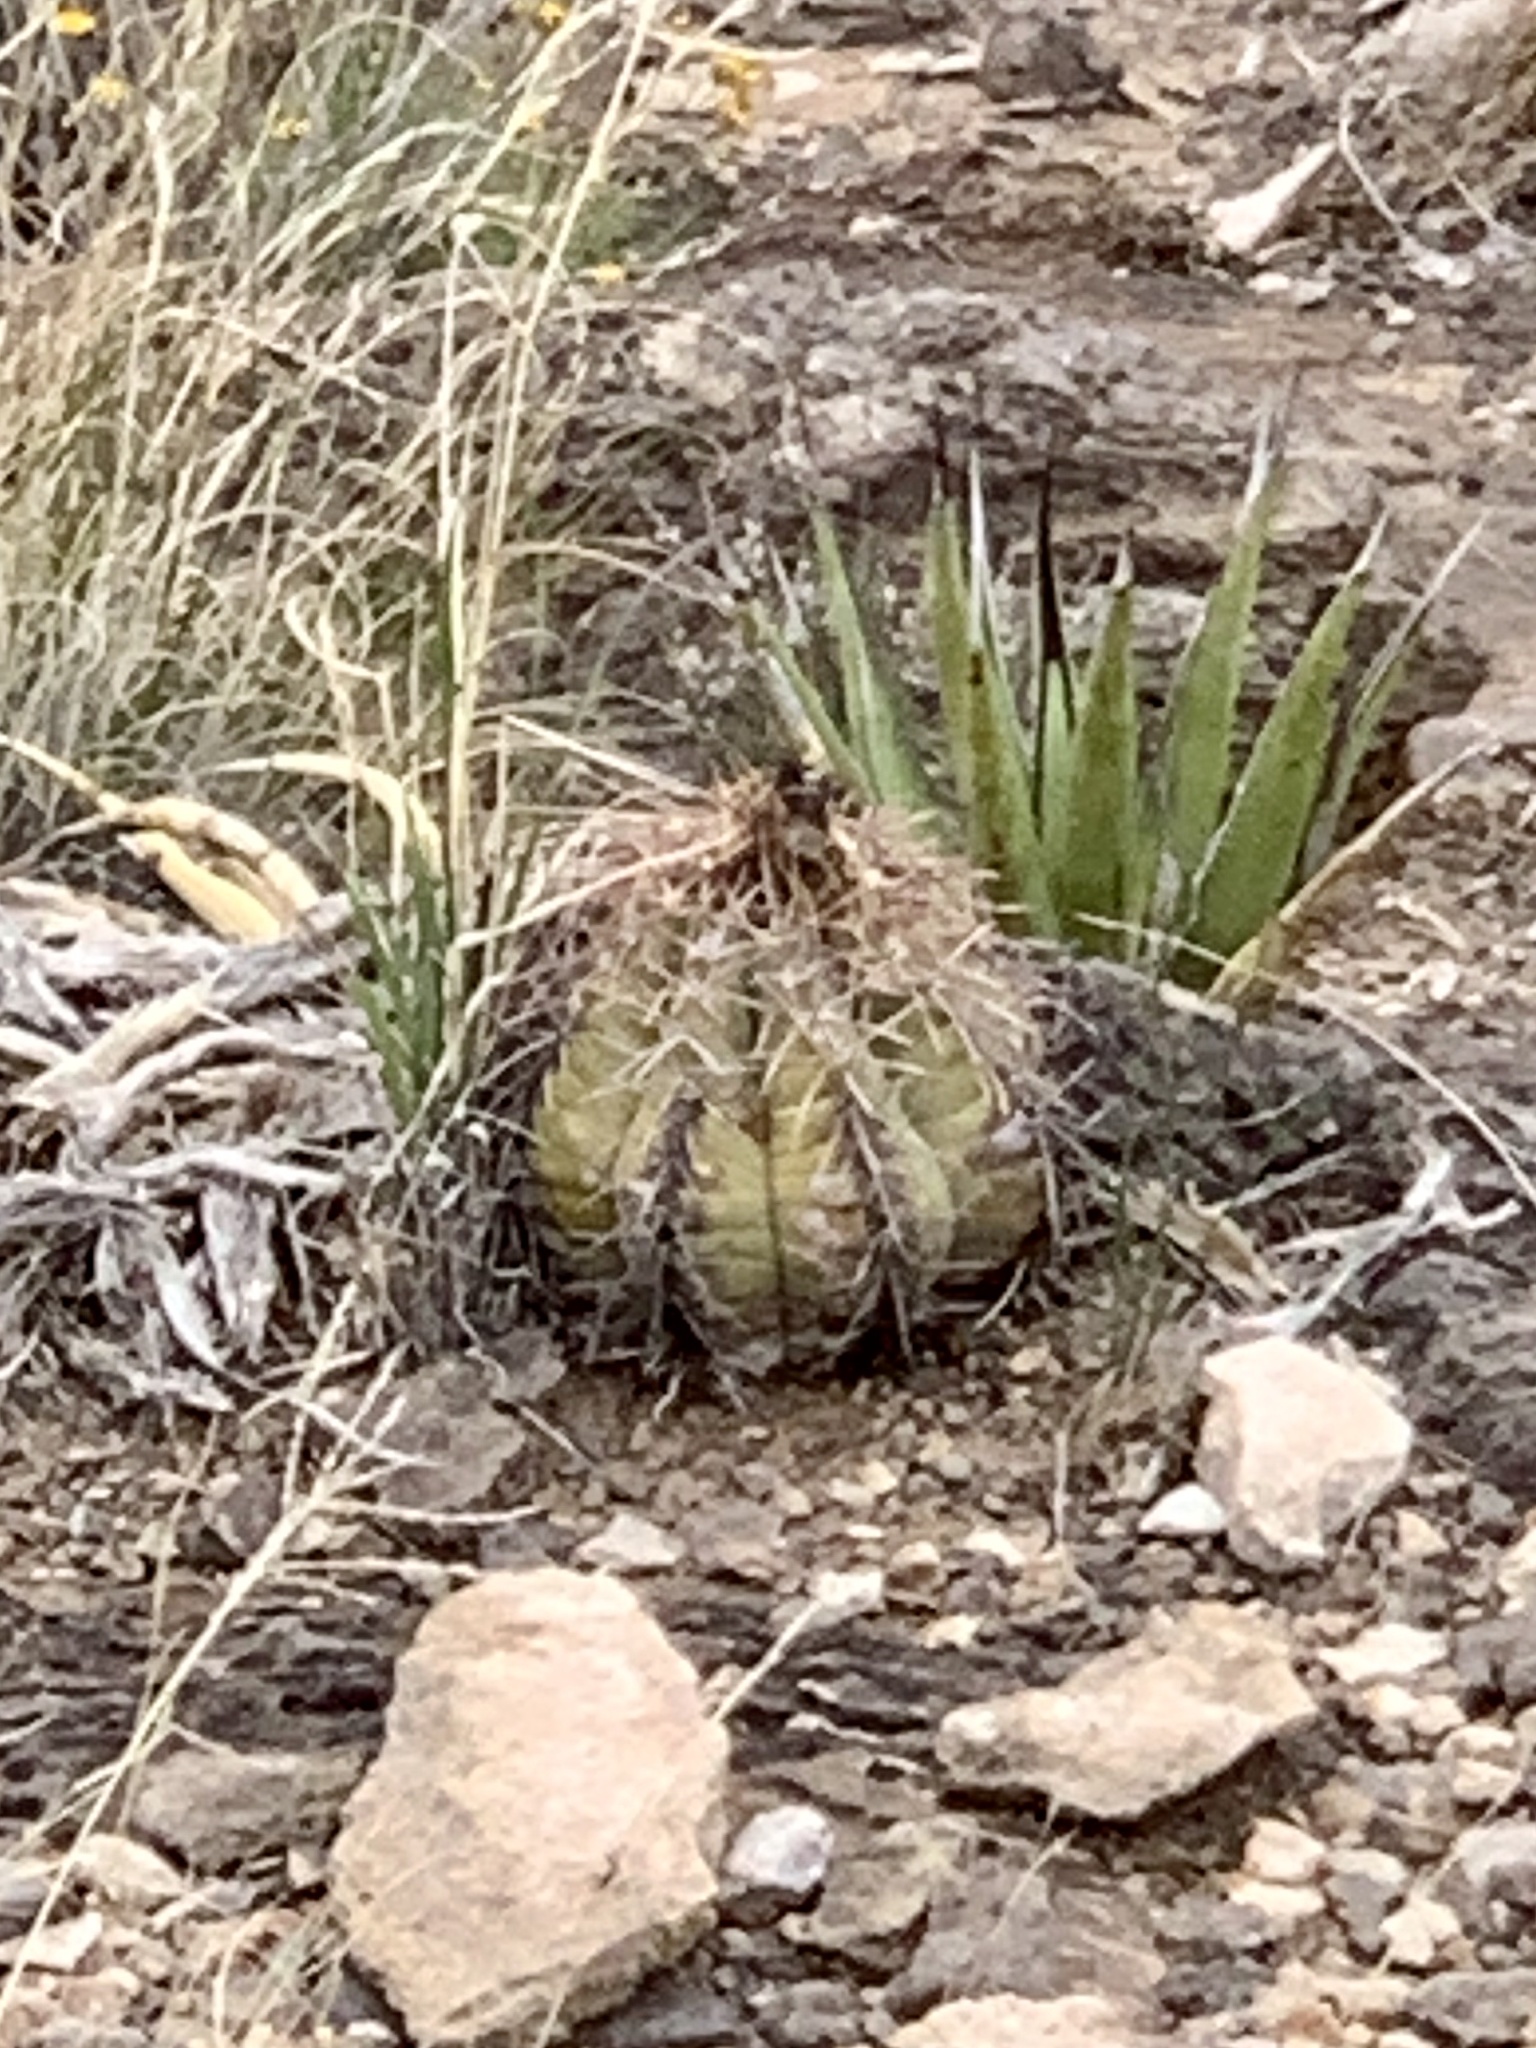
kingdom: Plantae
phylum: Tracheophyta
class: Magnoliopsida
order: Caryophyllales
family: Cactaceae
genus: Echinocactus
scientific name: Echinocactus horizonthalonius
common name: Devilshead
